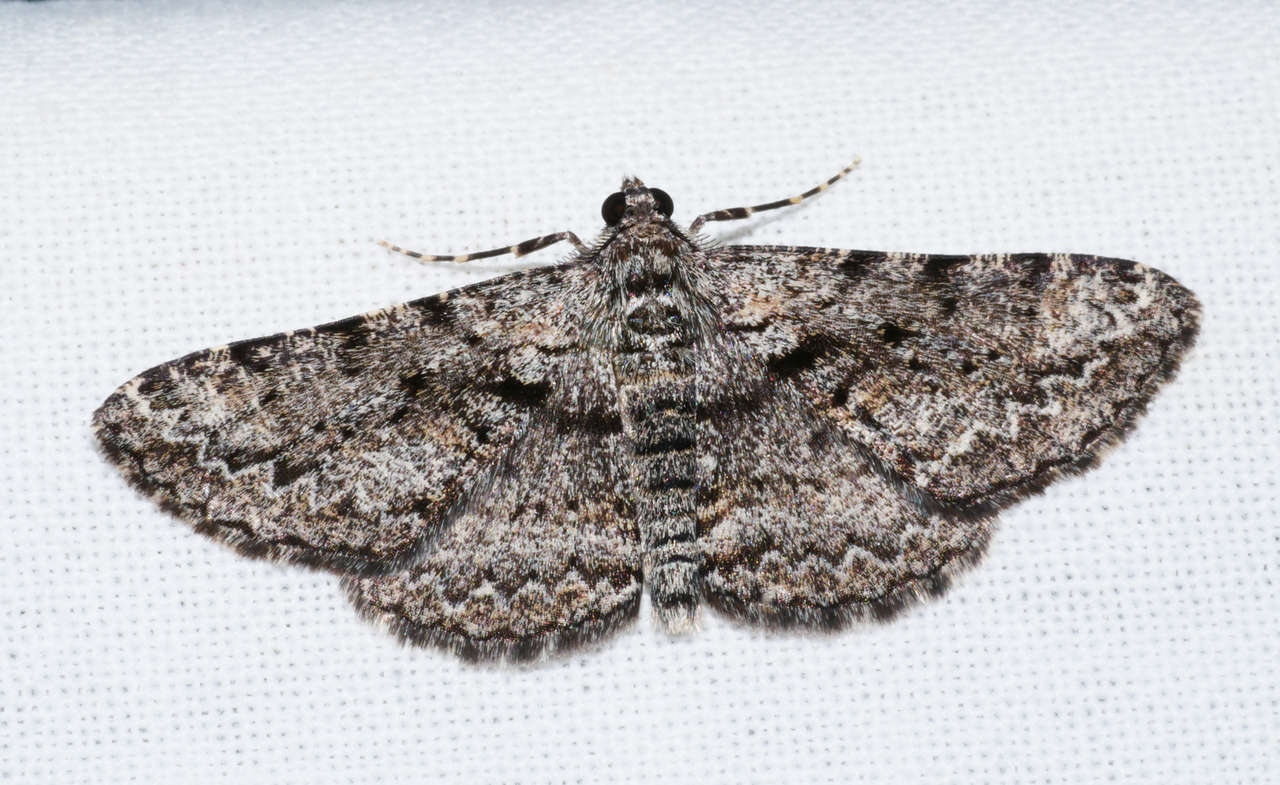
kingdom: Animalia
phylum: Arthropoda
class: Insecta
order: Lepidoptera
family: Geometridae
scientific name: Geometridae
